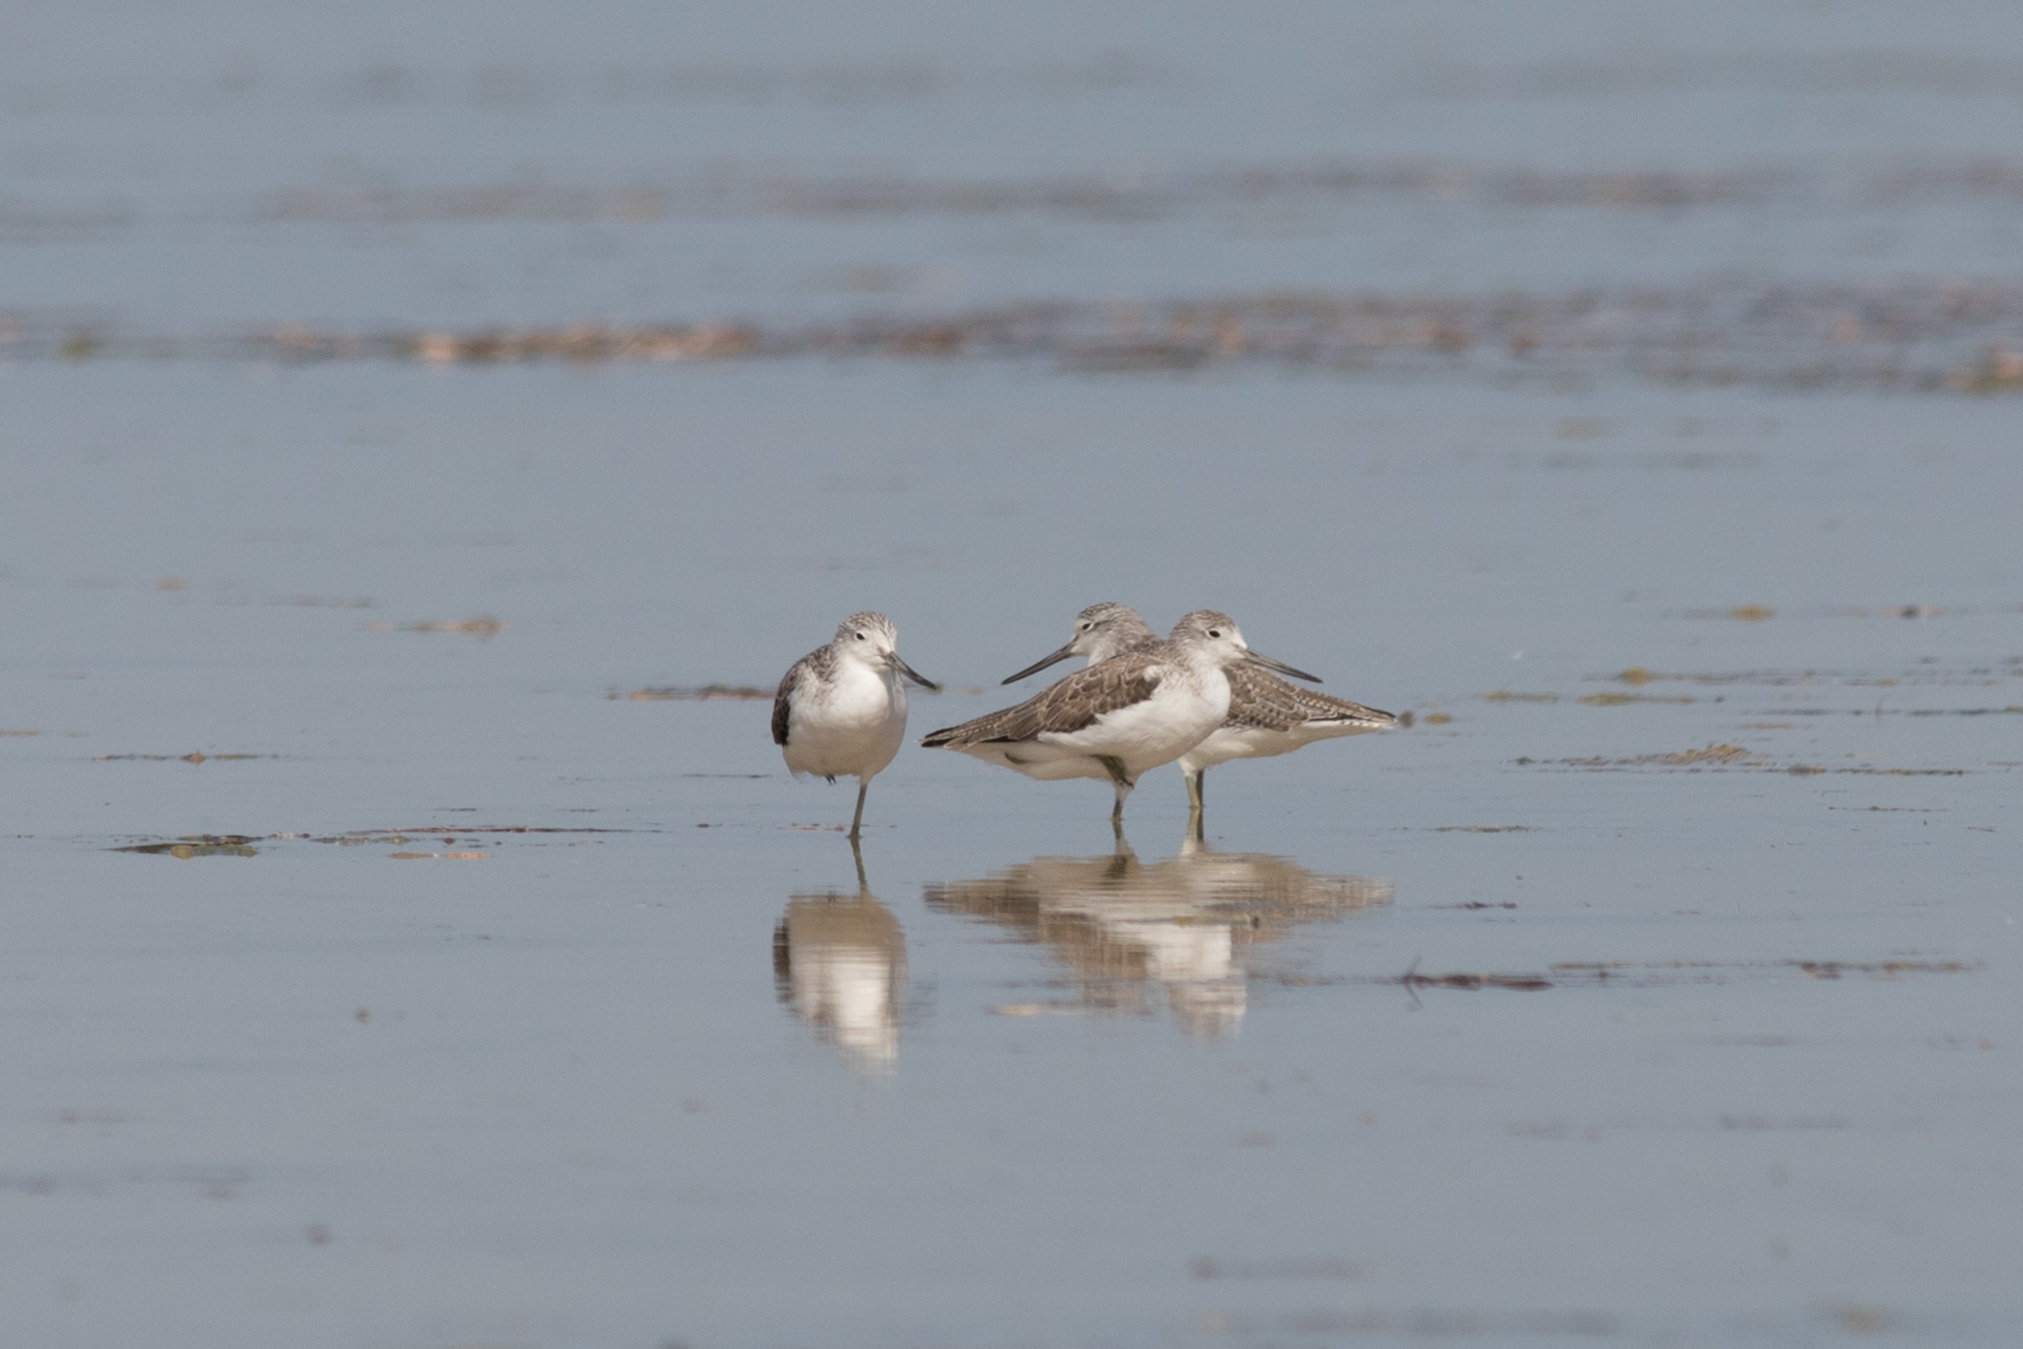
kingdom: Animalia
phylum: Chordata
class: Aves
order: Charadriiformes
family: Scolopacidae
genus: Tringa
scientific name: Tringa nebularia
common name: Common greenshank
